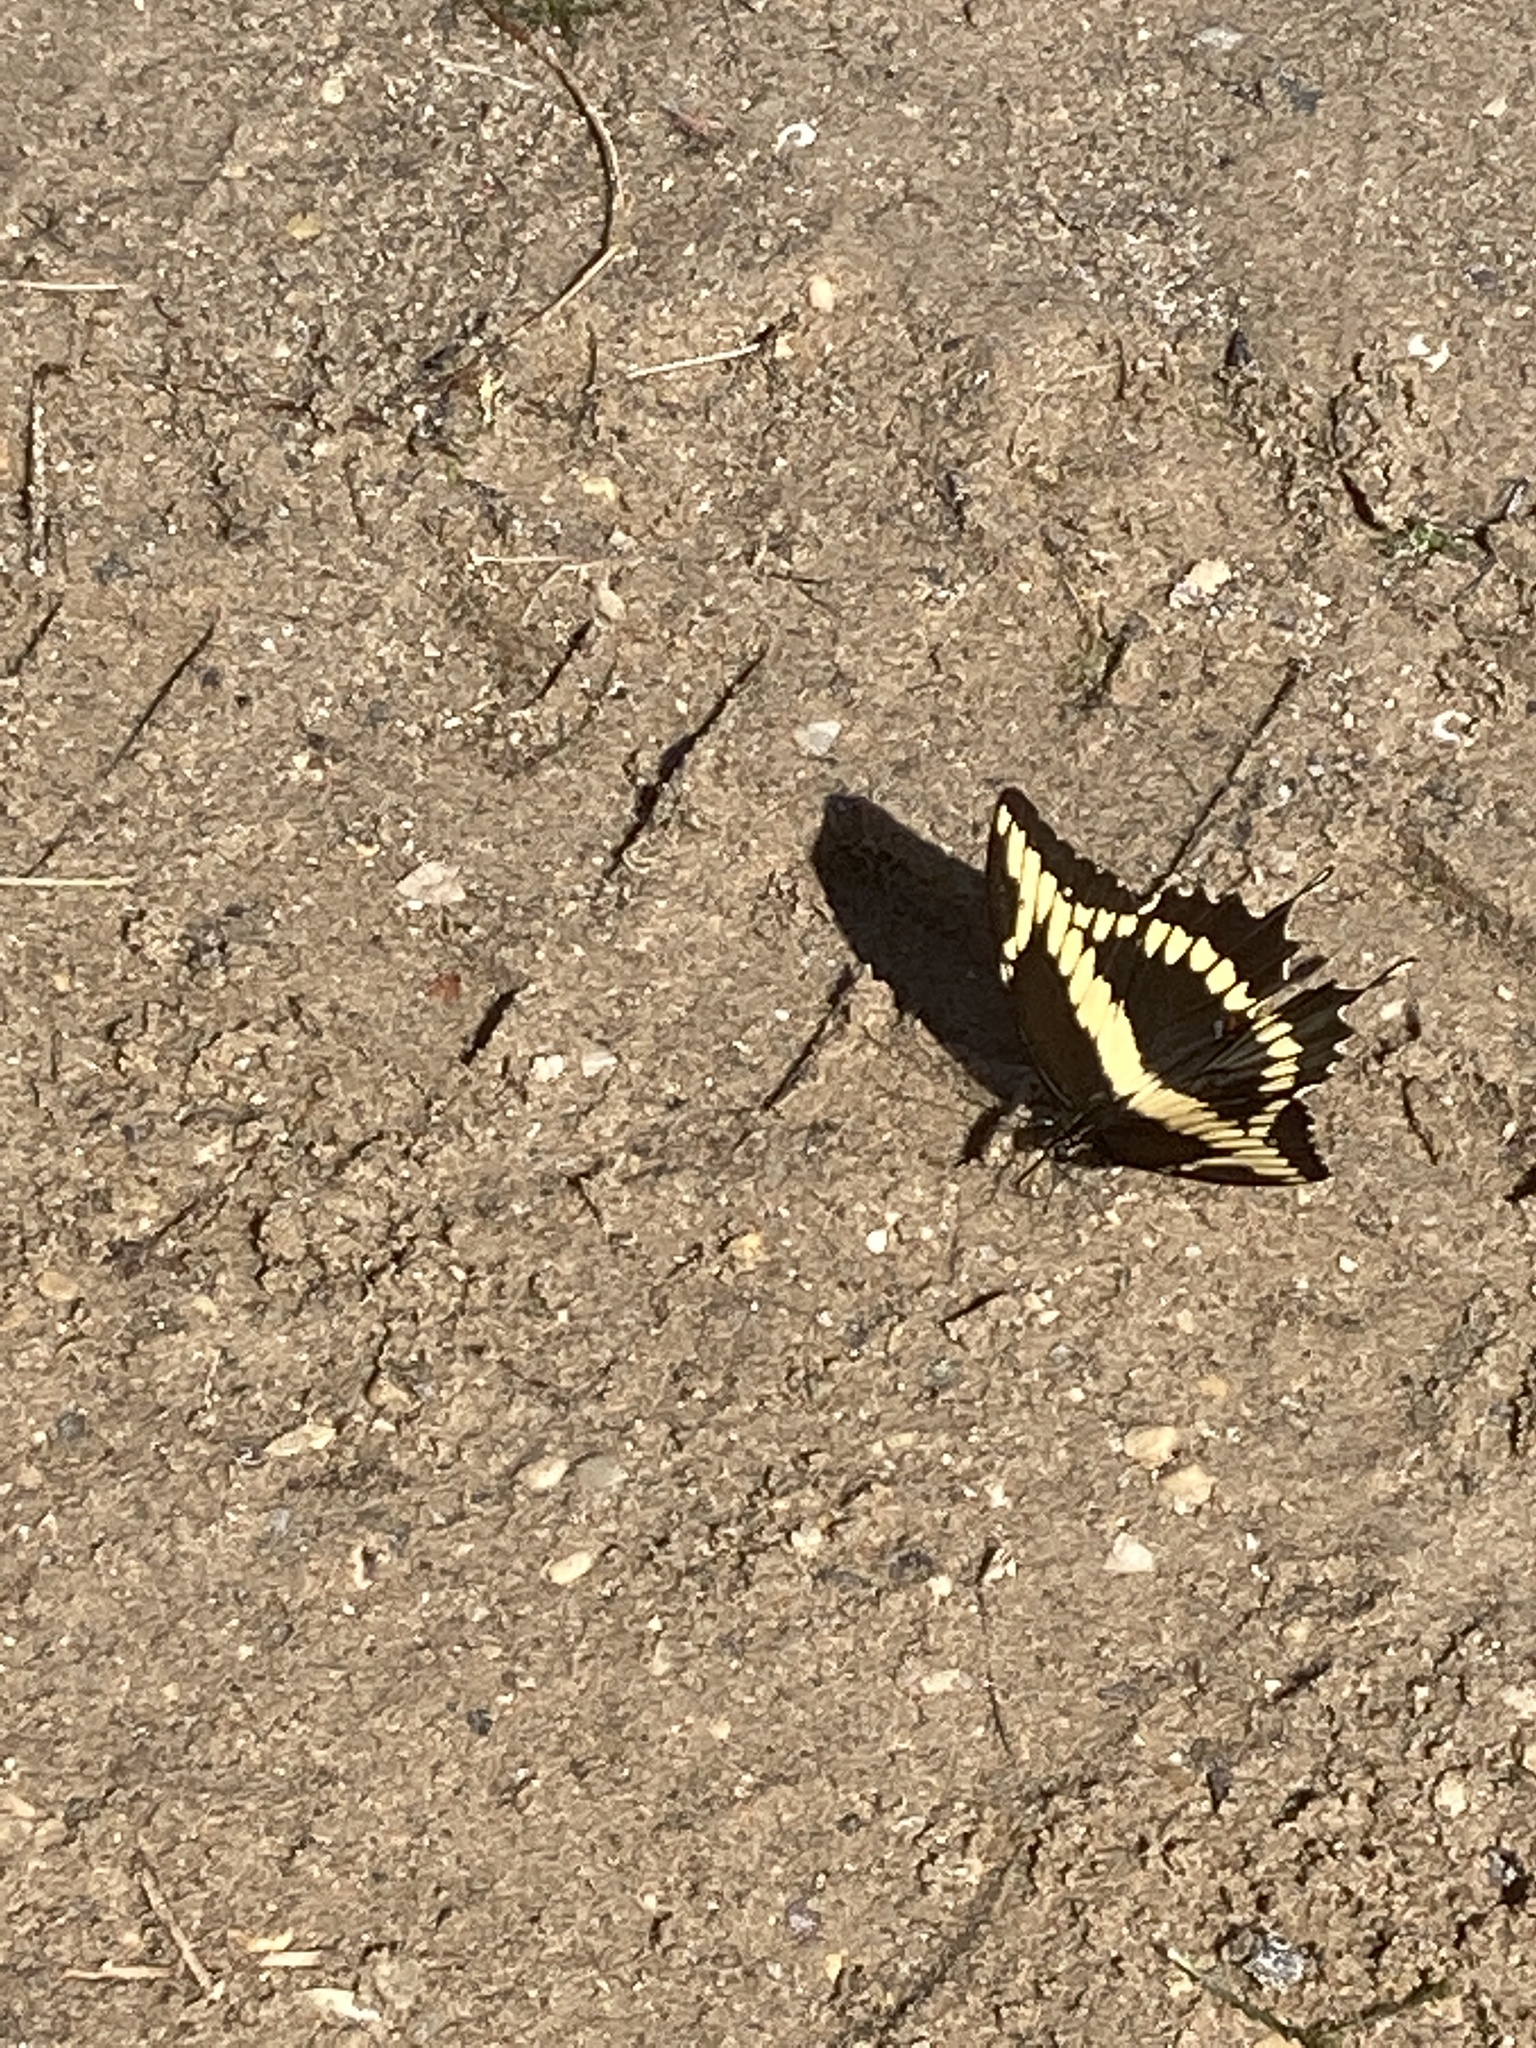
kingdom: Animalia
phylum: Arthropoda
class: Insecta
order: Lepidoptera
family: Papilionidae
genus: Papilio
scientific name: Papilio cresphontes
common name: Giant swallowtail
